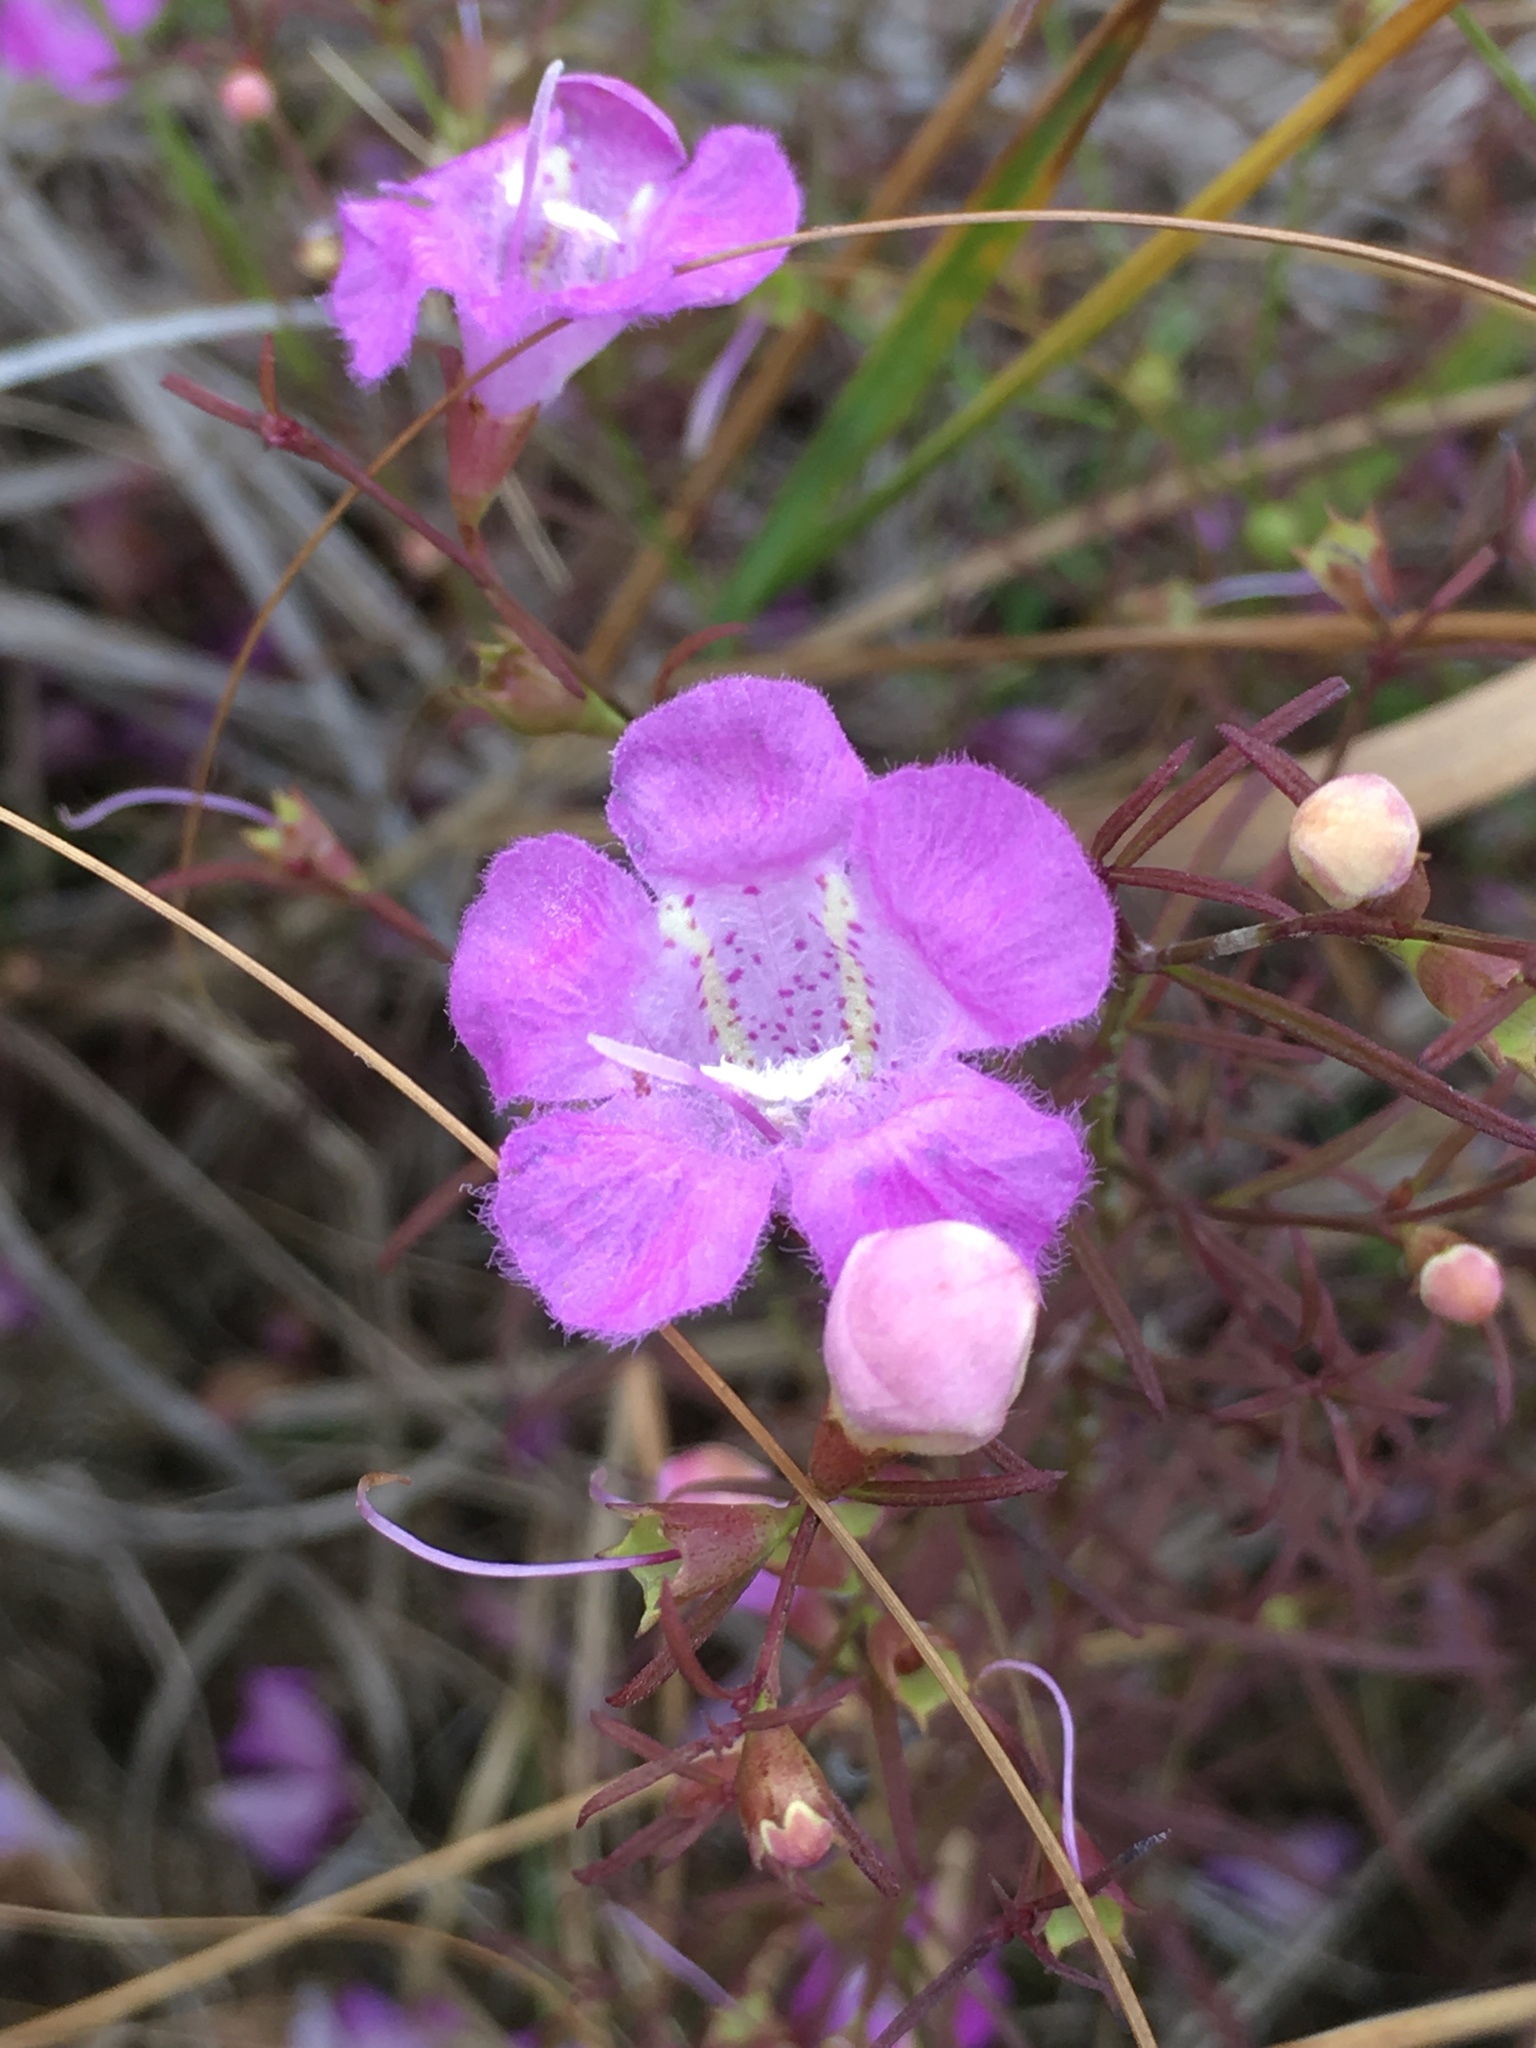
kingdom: Plantae
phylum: Tracheophyta
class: Magnoliopsida
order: Lamiales
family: Orobanchaceae
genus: Agalinis
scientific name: Agalinis purpurea
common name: Purple false foxglove
